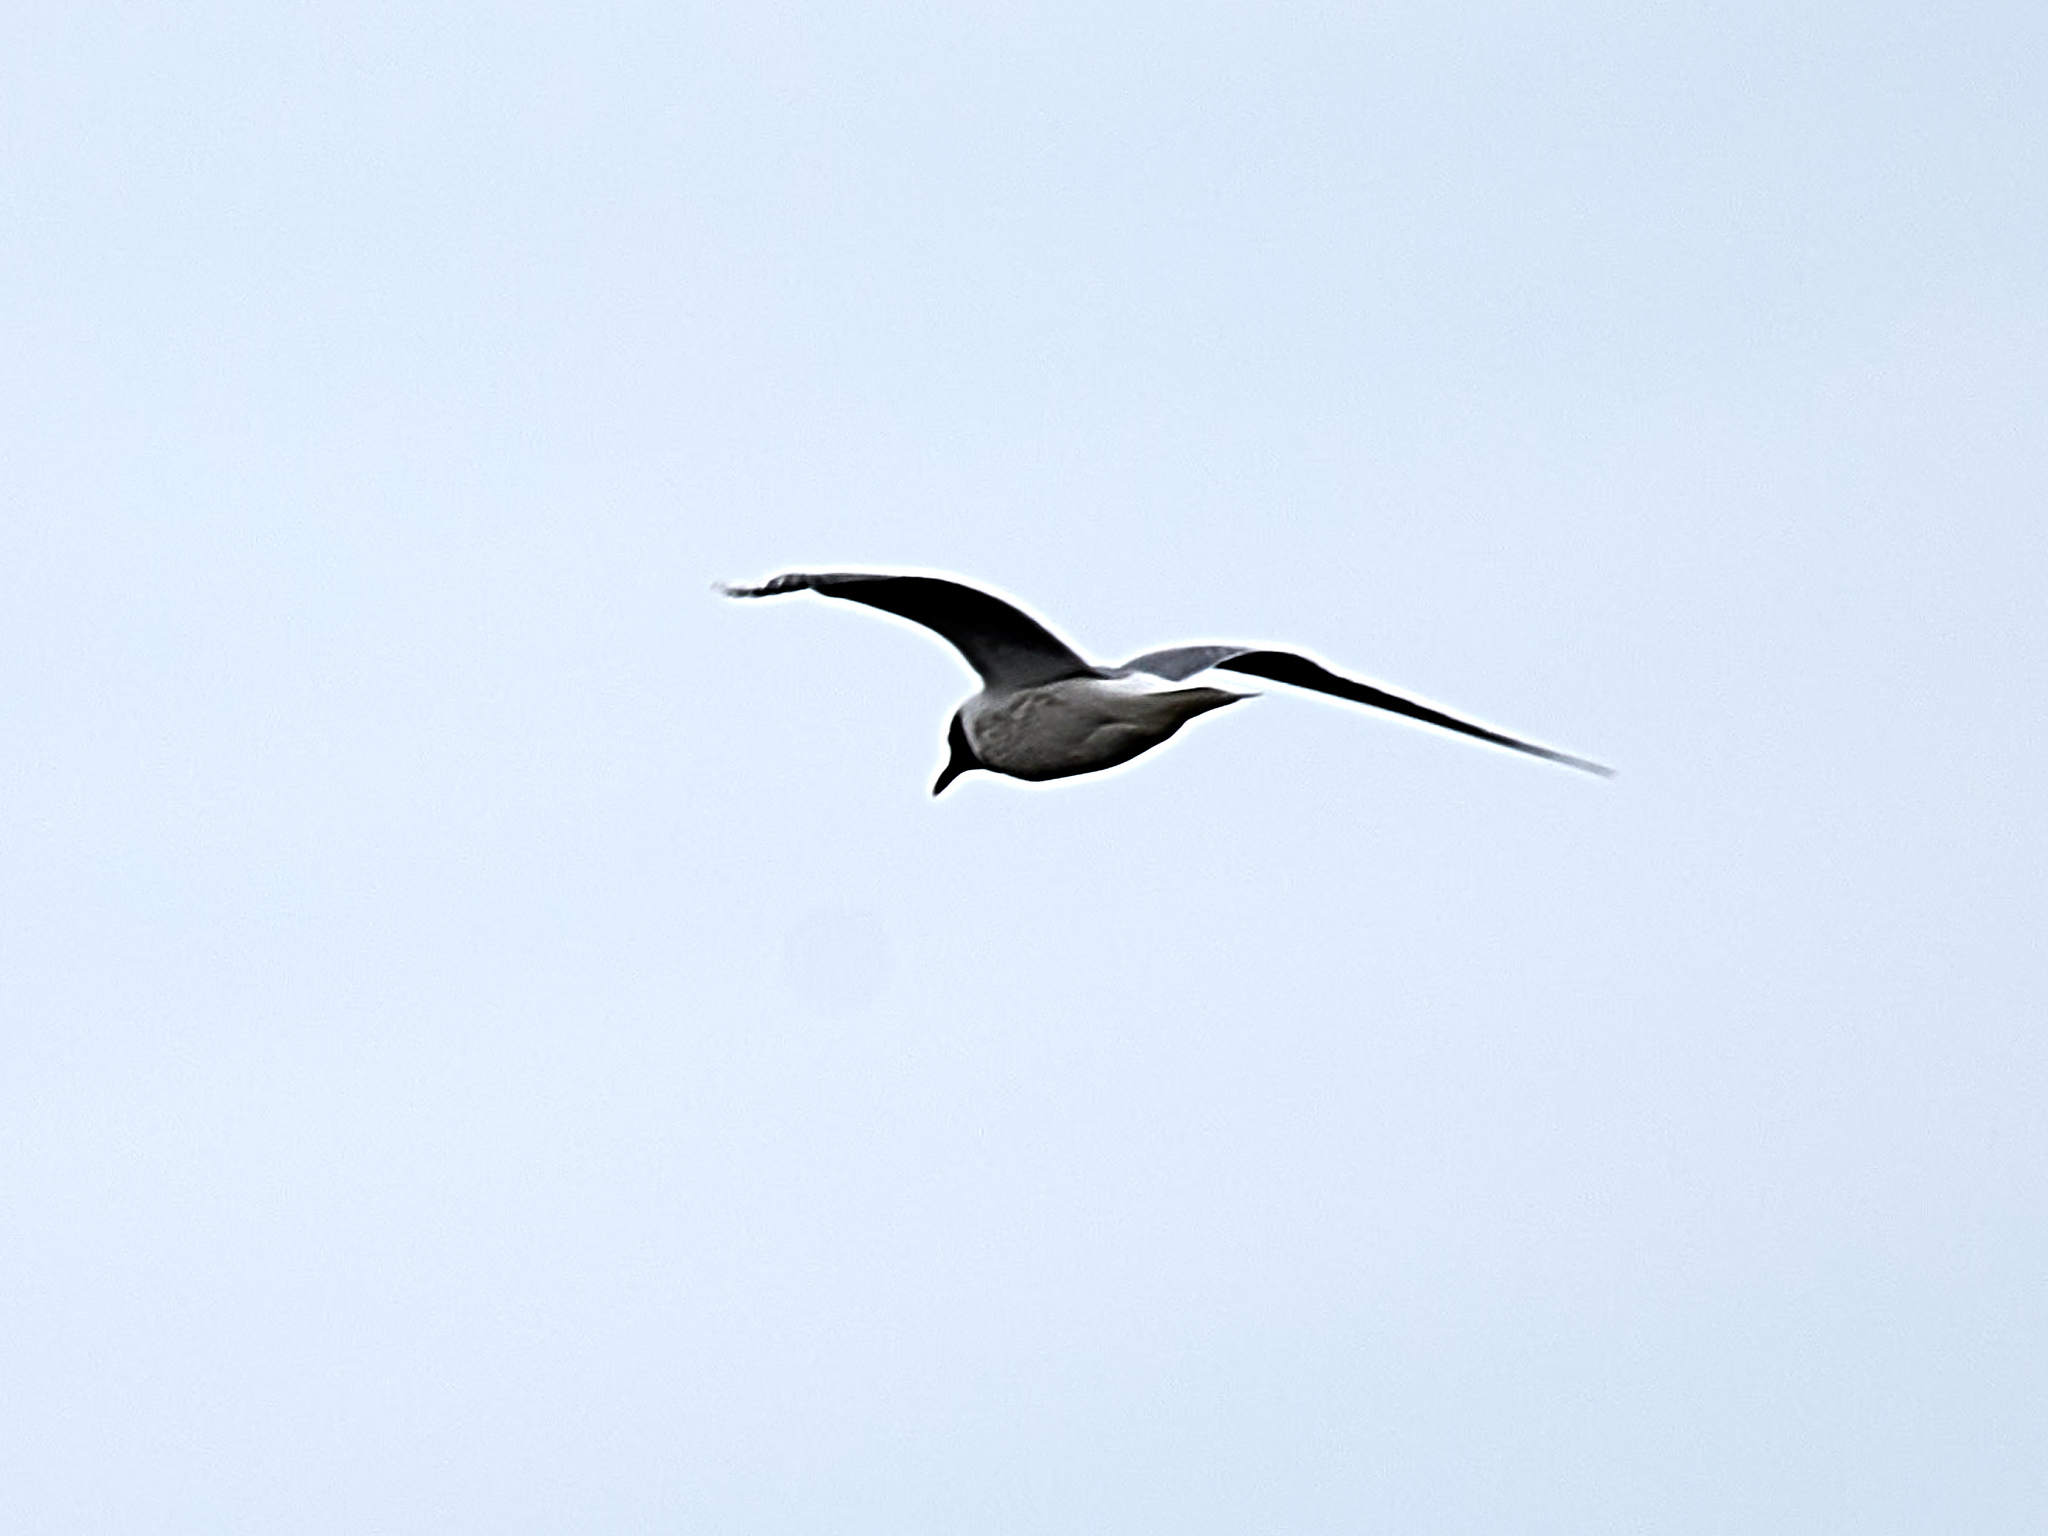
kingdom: Animalia
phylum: Chordata
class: Aves
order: Charadriiformes
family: Laridae
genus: Chroicocephalus
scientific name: Chroicocephalus ridibundus
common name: Black-headed gull
